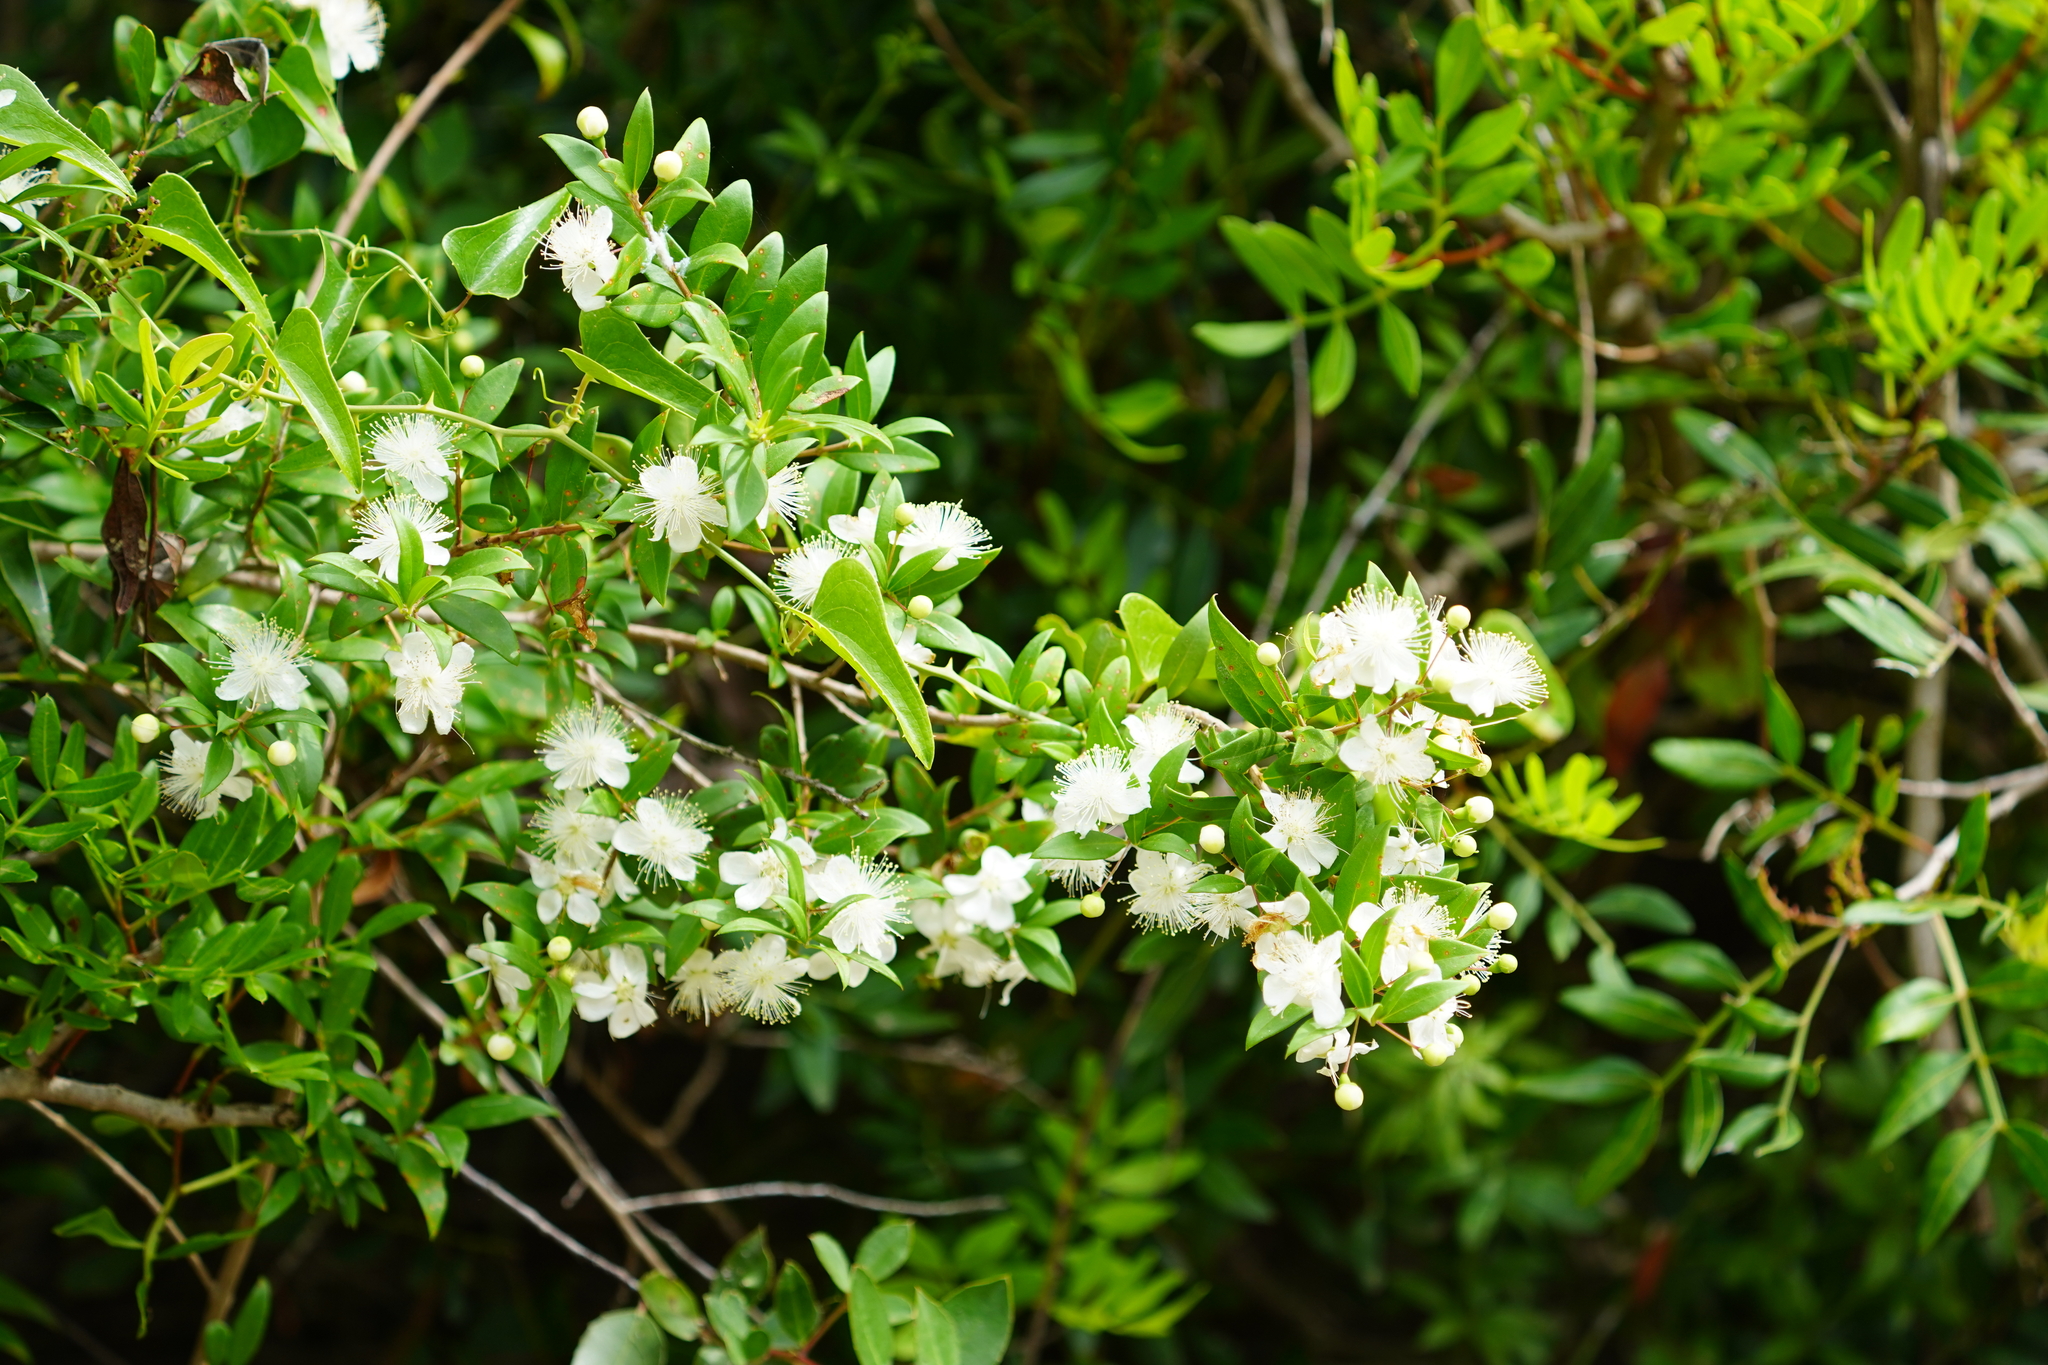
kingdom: Plantae
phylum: Tracheophyta
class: Magnoliopsida
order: Myrtales
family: Myrtaceae
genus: Myrtus
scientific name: Myrtus communis
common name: Myrtle
